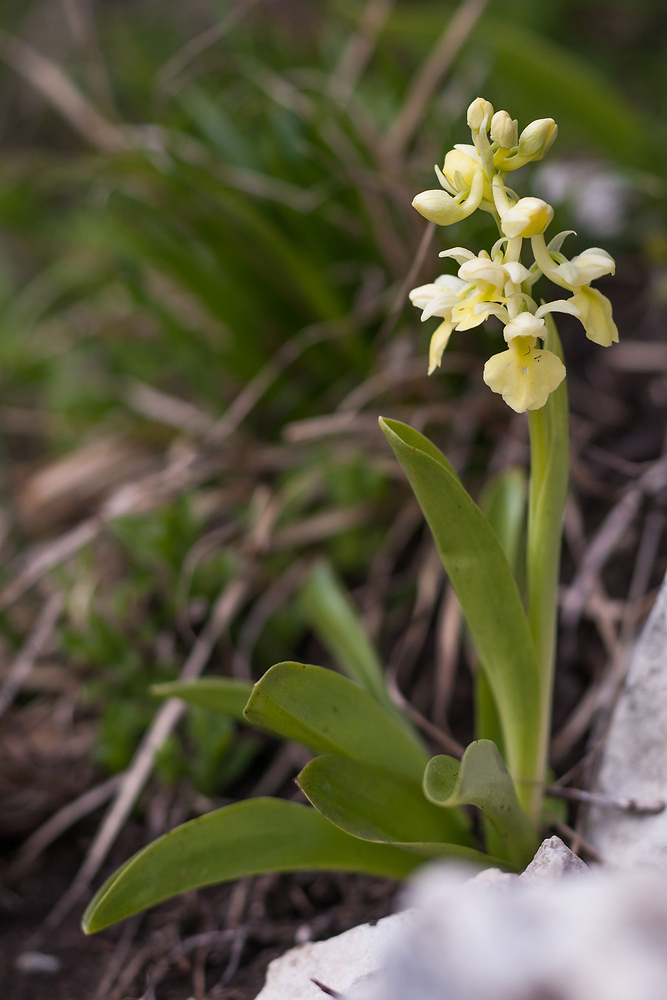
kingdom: Plantae
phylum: Tracheophyta
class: Liliopsida
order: Asparagales
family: Orchidaceae
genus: Orchis
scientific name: Orchis pallens
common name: Pale-flowered orchid
